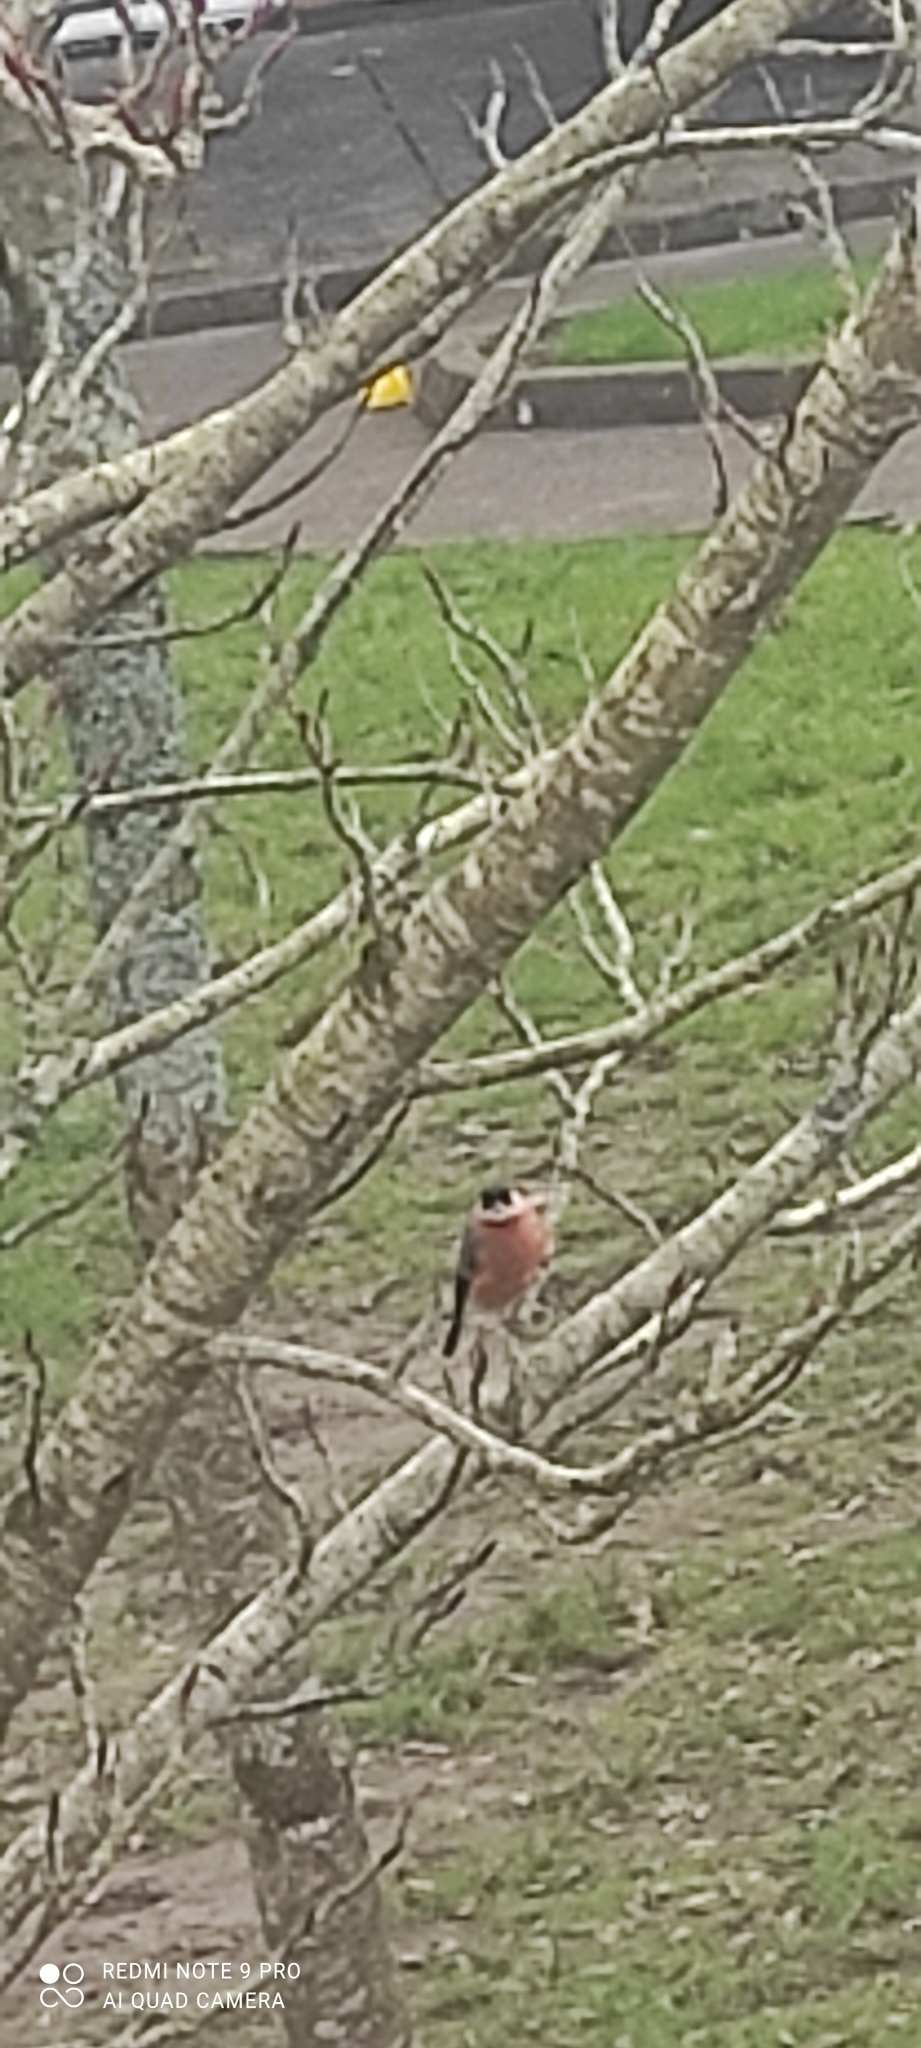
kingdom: Animalia
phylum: Chordata
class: Aves
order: Passeriformes
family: Fringillidae
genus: Pyrrhula
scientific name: Pyrrhula pyrrhula
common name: Eurasian bullfinch
